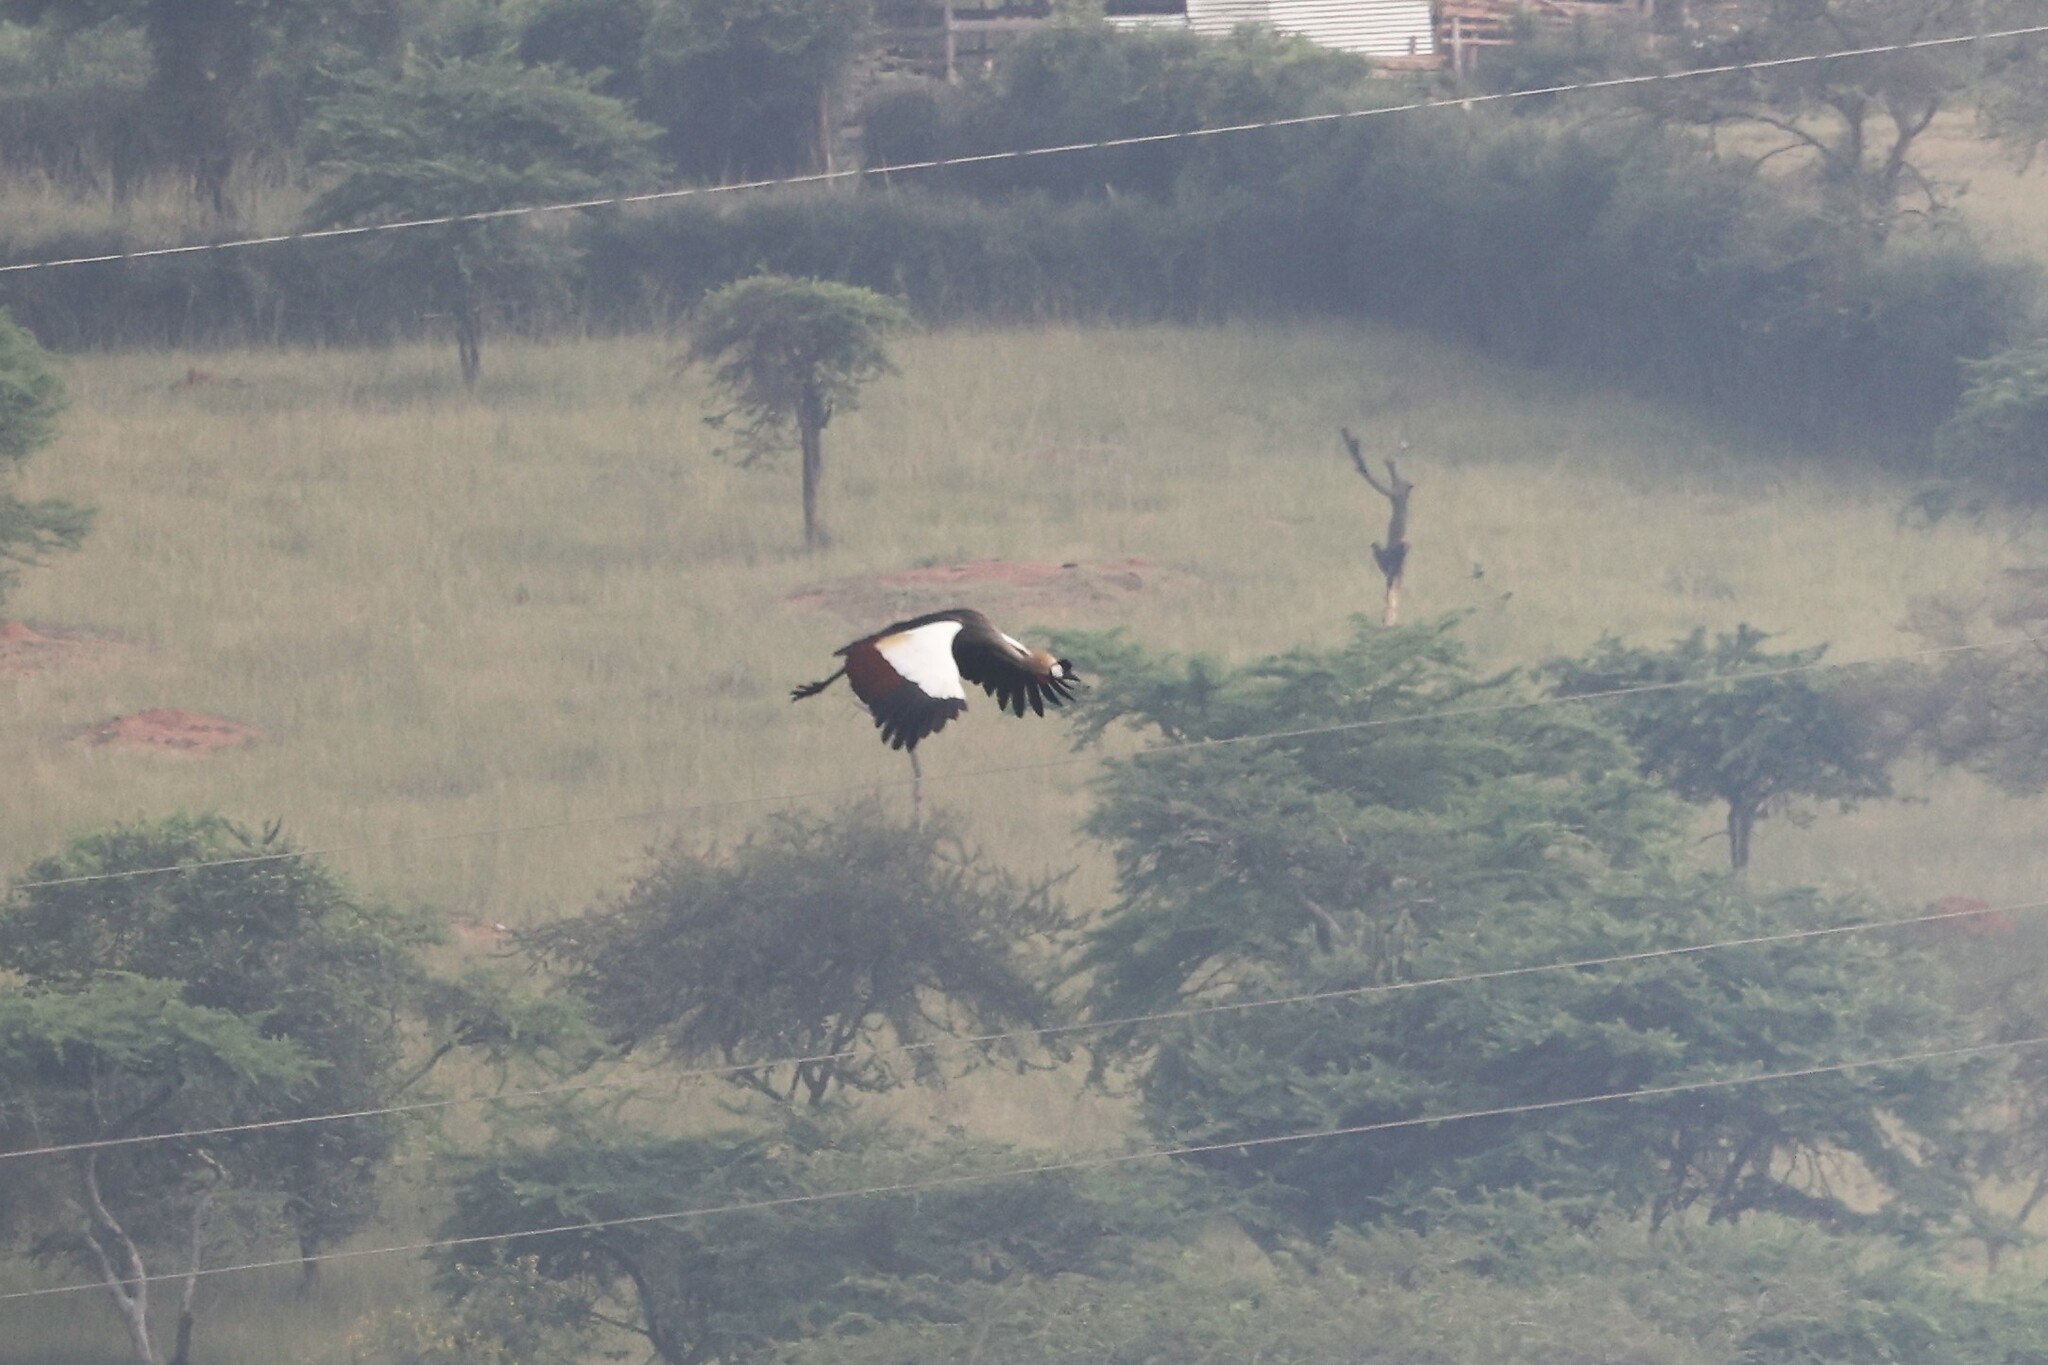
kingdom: Animalia
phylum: Chordata
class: Aves
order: Gruiformes
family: Gruidae
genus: Balearica
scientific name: Balearica regulorum
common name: Grey crowned crane
